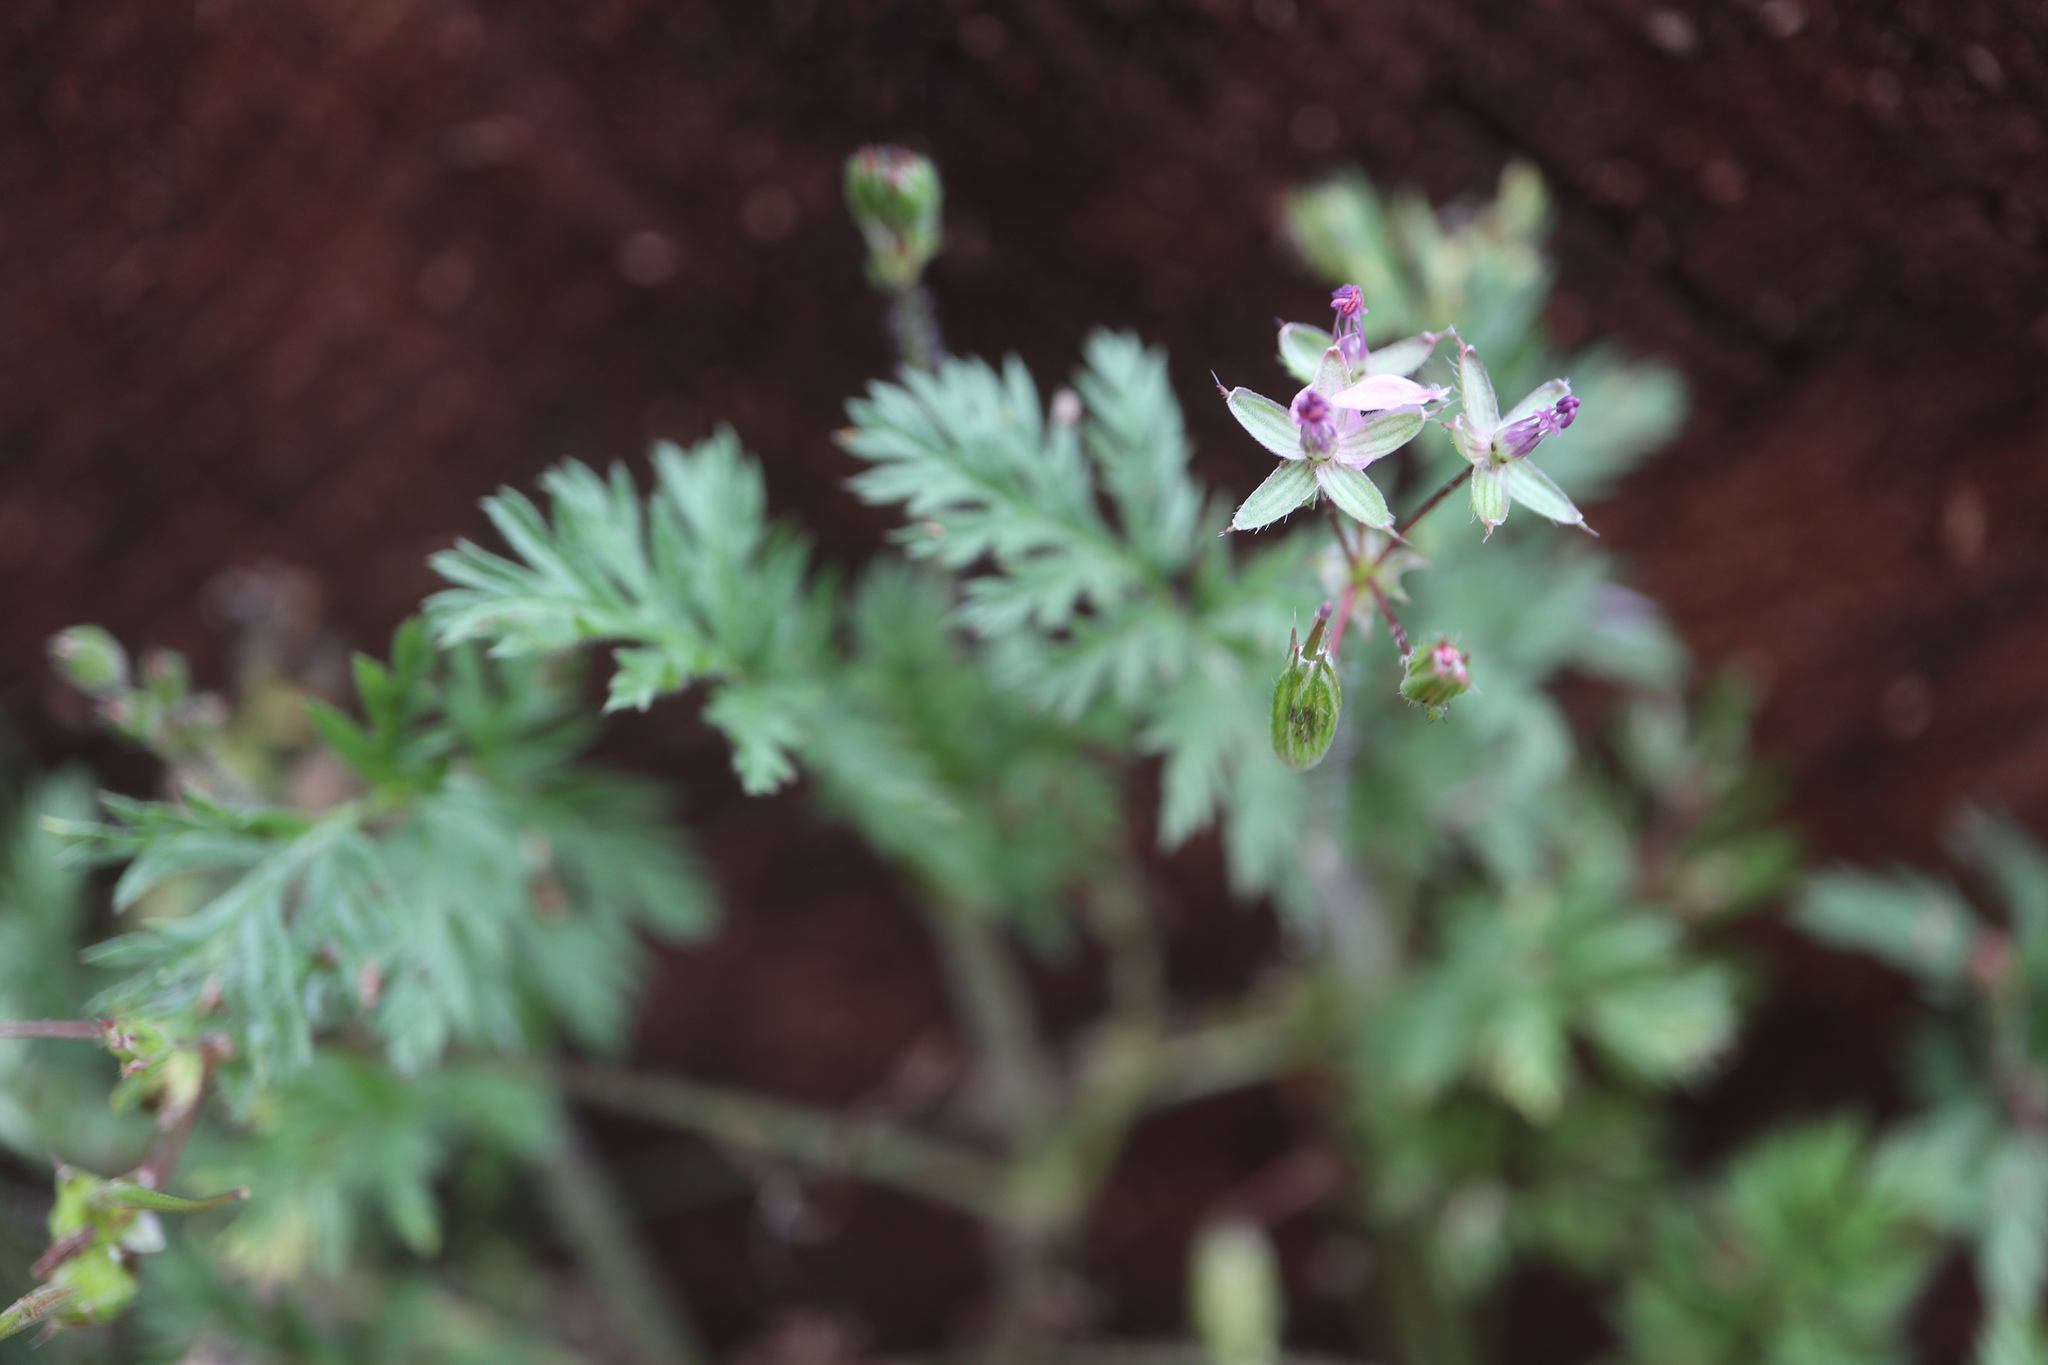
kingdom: Plantae
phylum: Tracheophyta
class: Magnoliopsida
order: Geraniales
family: Geraniaceae
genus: Erodium
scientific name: Erodium cicutarium
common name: Common stork's-bill
